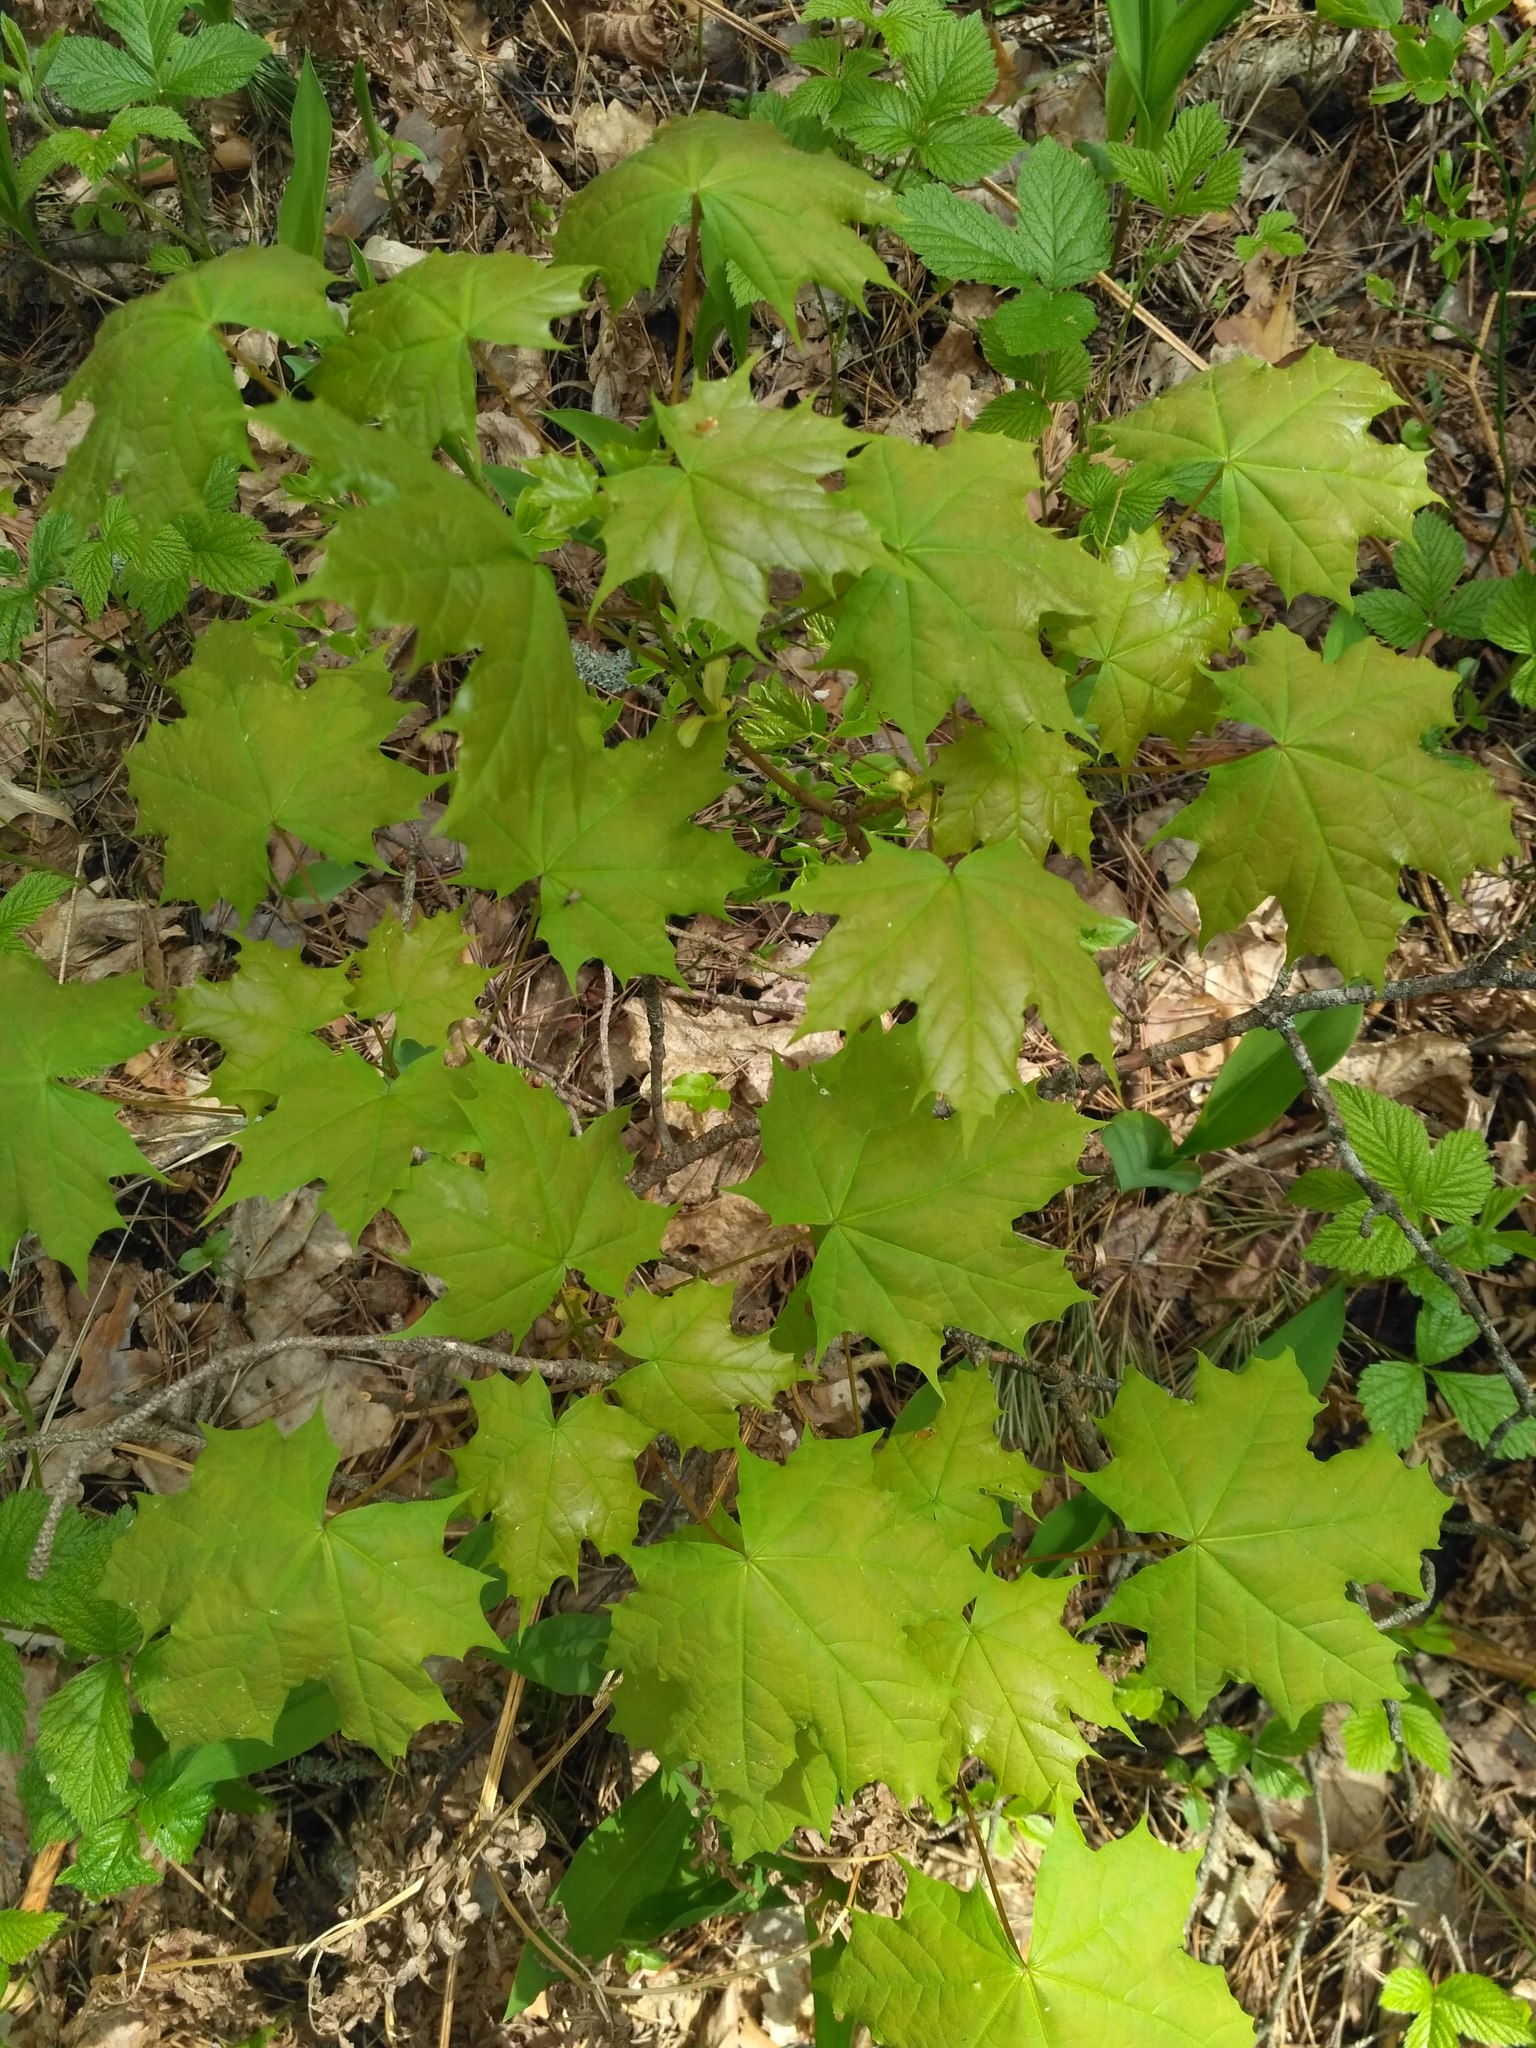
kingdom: Plantae
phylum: Tracheophyta
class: Magnoliopsida
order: Sapindales
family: Sapindaceae
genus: Acer
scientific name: Acer platanoides
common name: Norway maple
